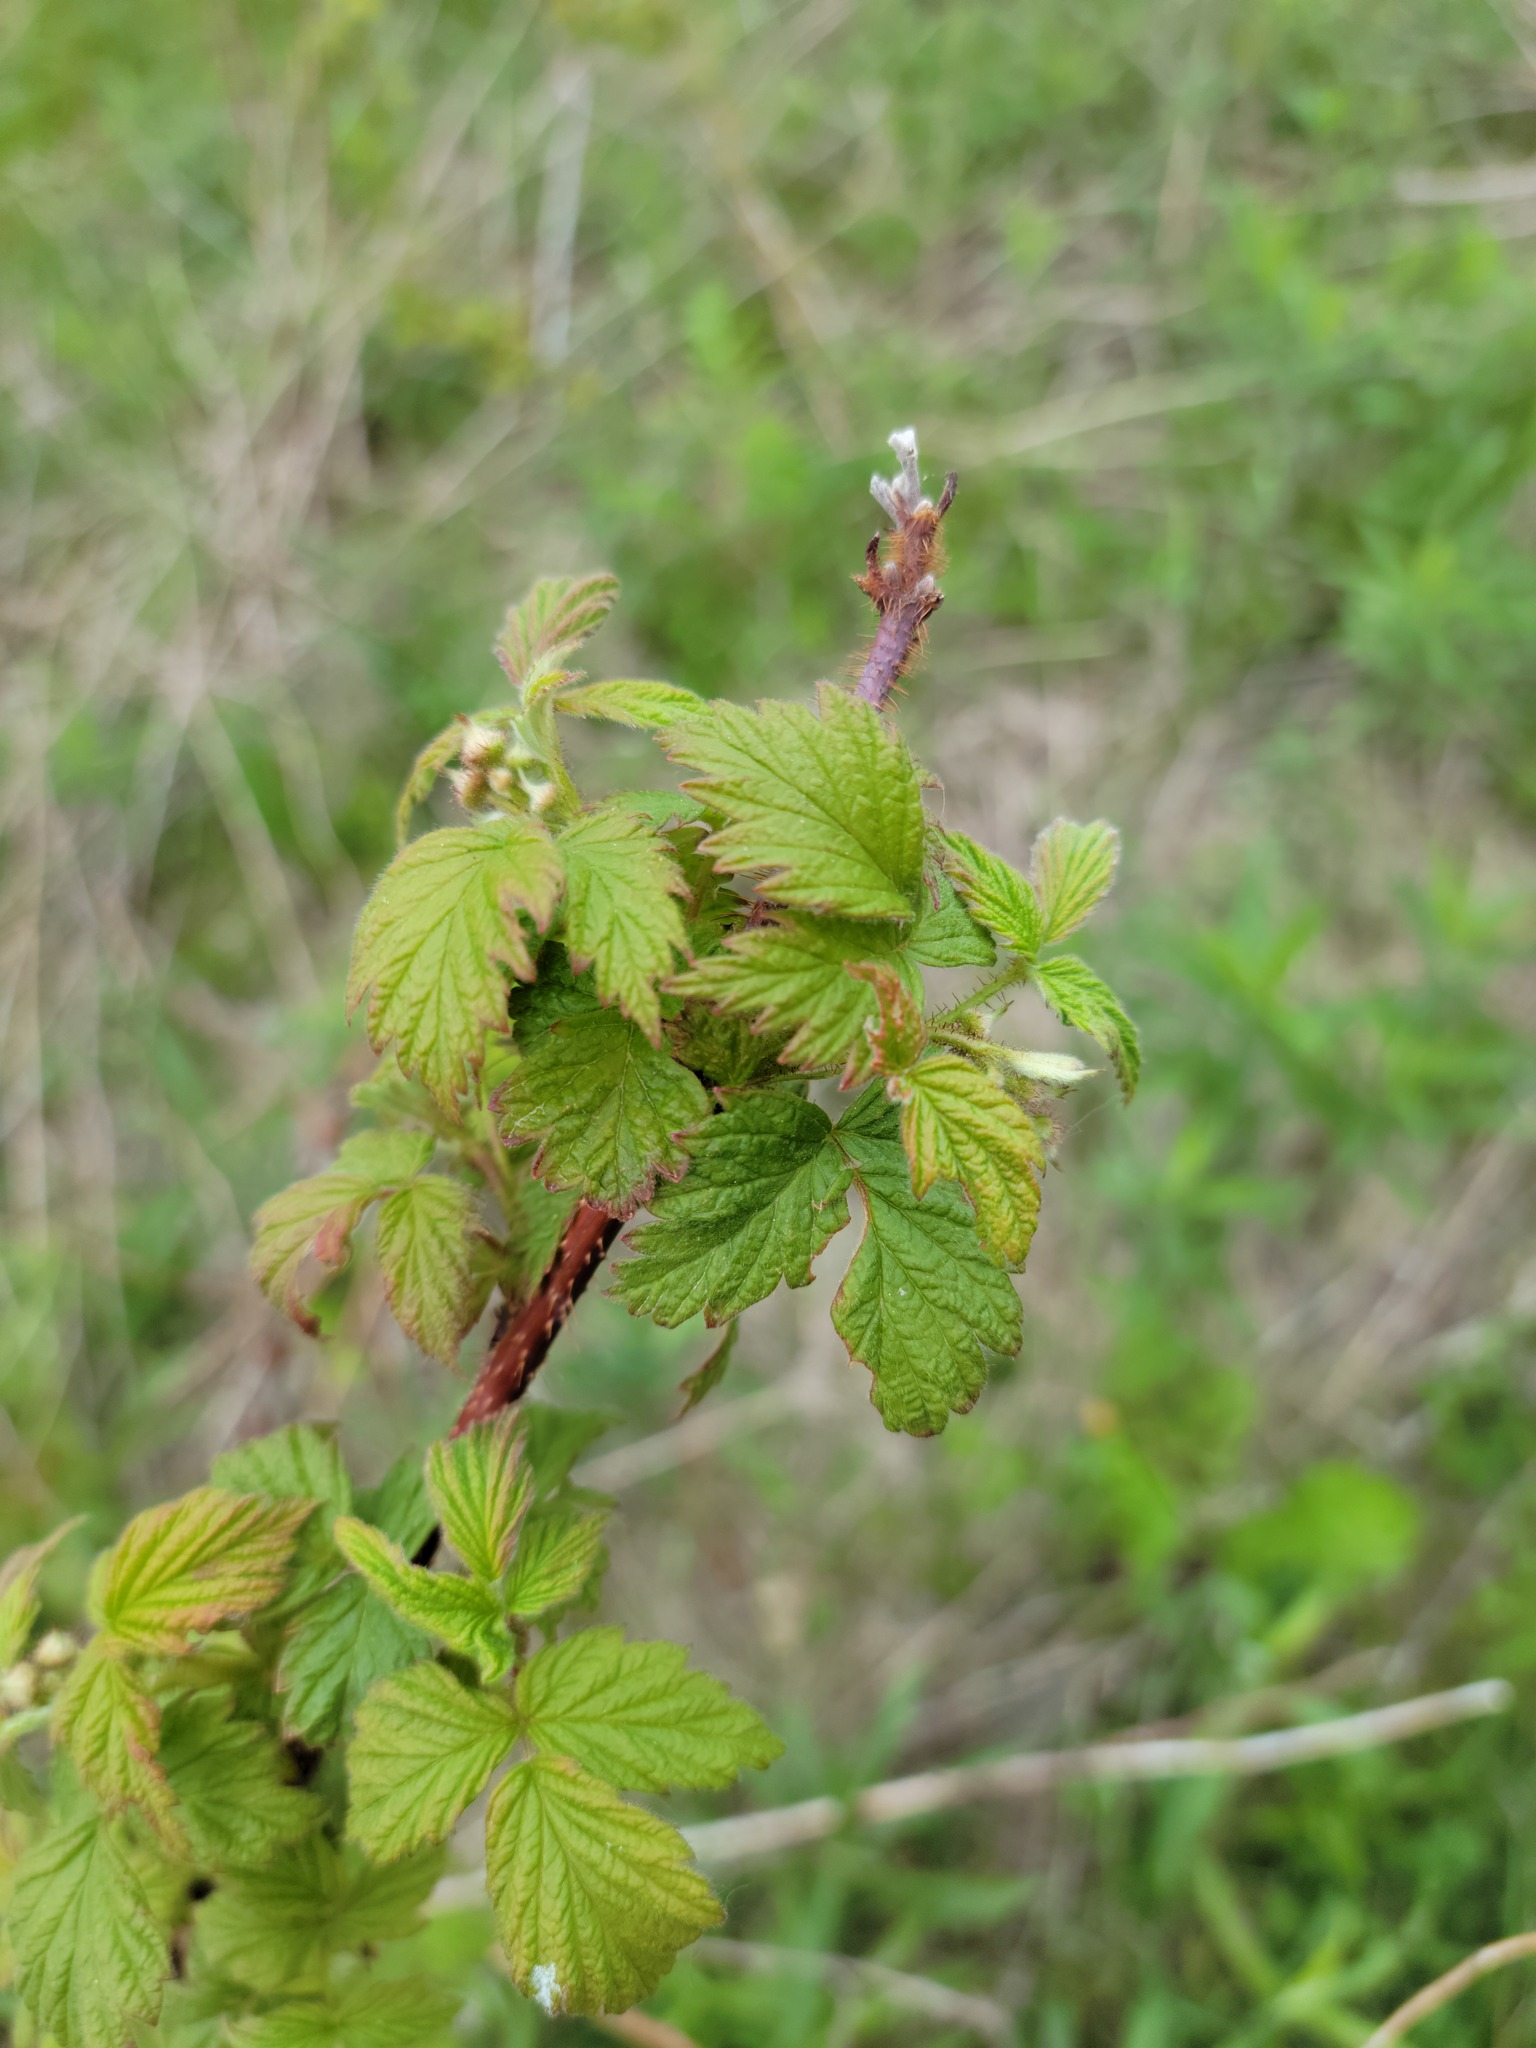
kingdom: Plantae
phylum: Tracheophyta
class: Magnoliopsida
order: Rosales
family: Rosaceae
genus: Rubus
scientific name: Rubus occidentalis
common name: Black raspberry
